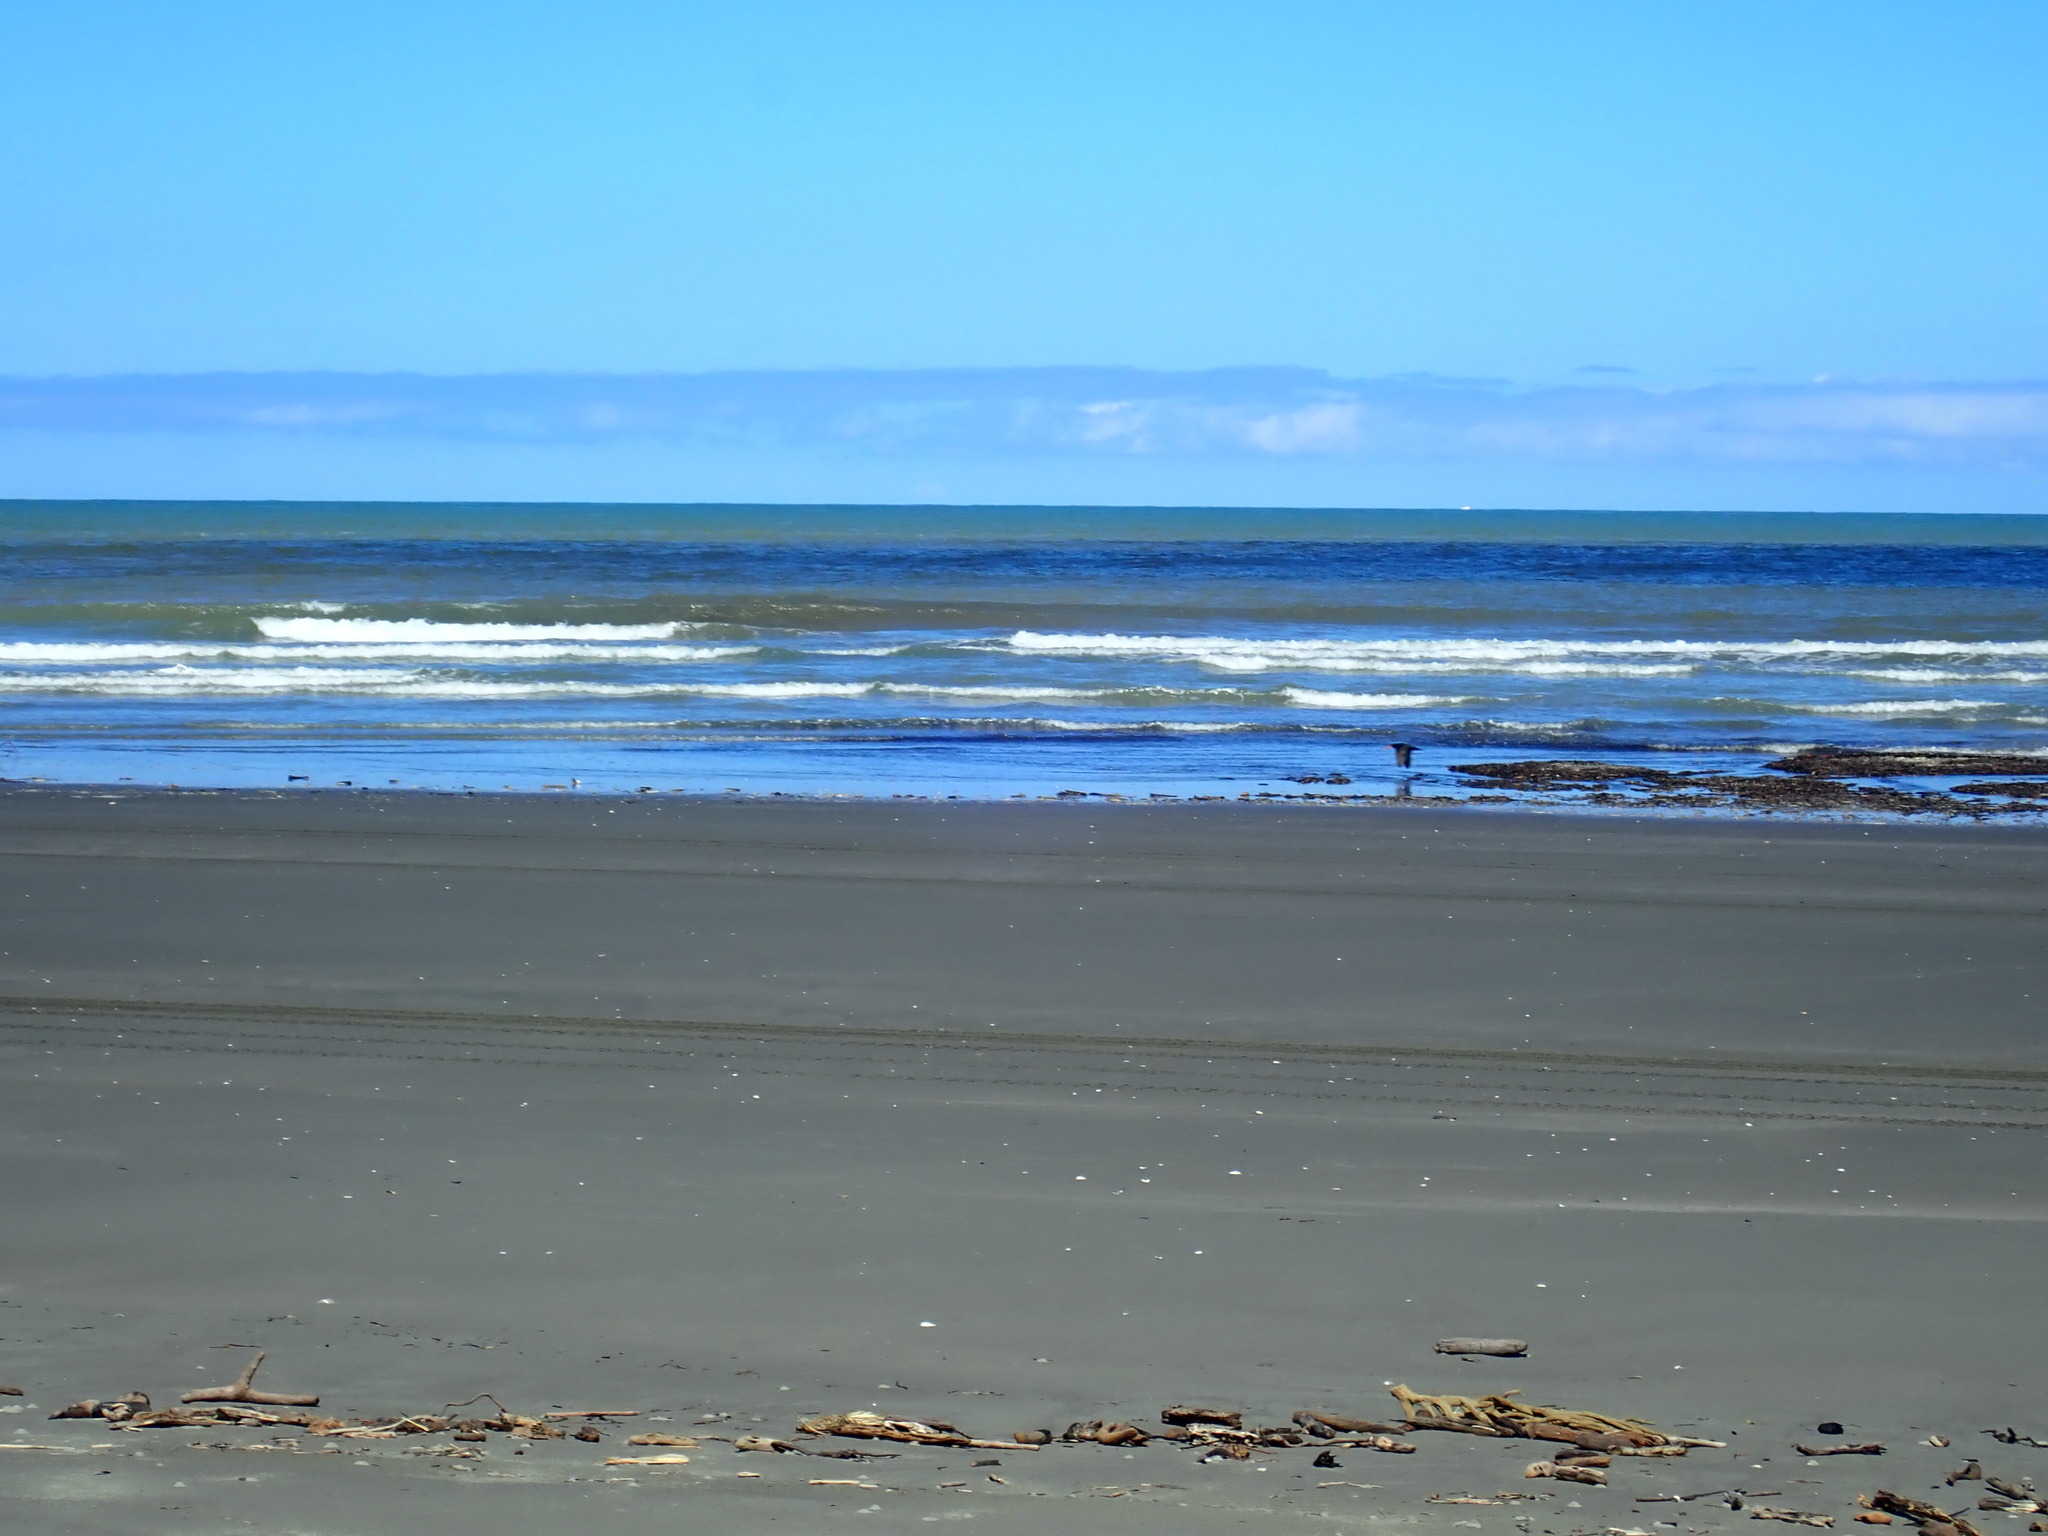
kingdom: Animalia
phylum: Chordata
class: Aves
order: Charadriiformes
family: Haematopodidae
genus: Haematopus
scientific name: Haematopus unicolor
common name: Variable oystercatcher
